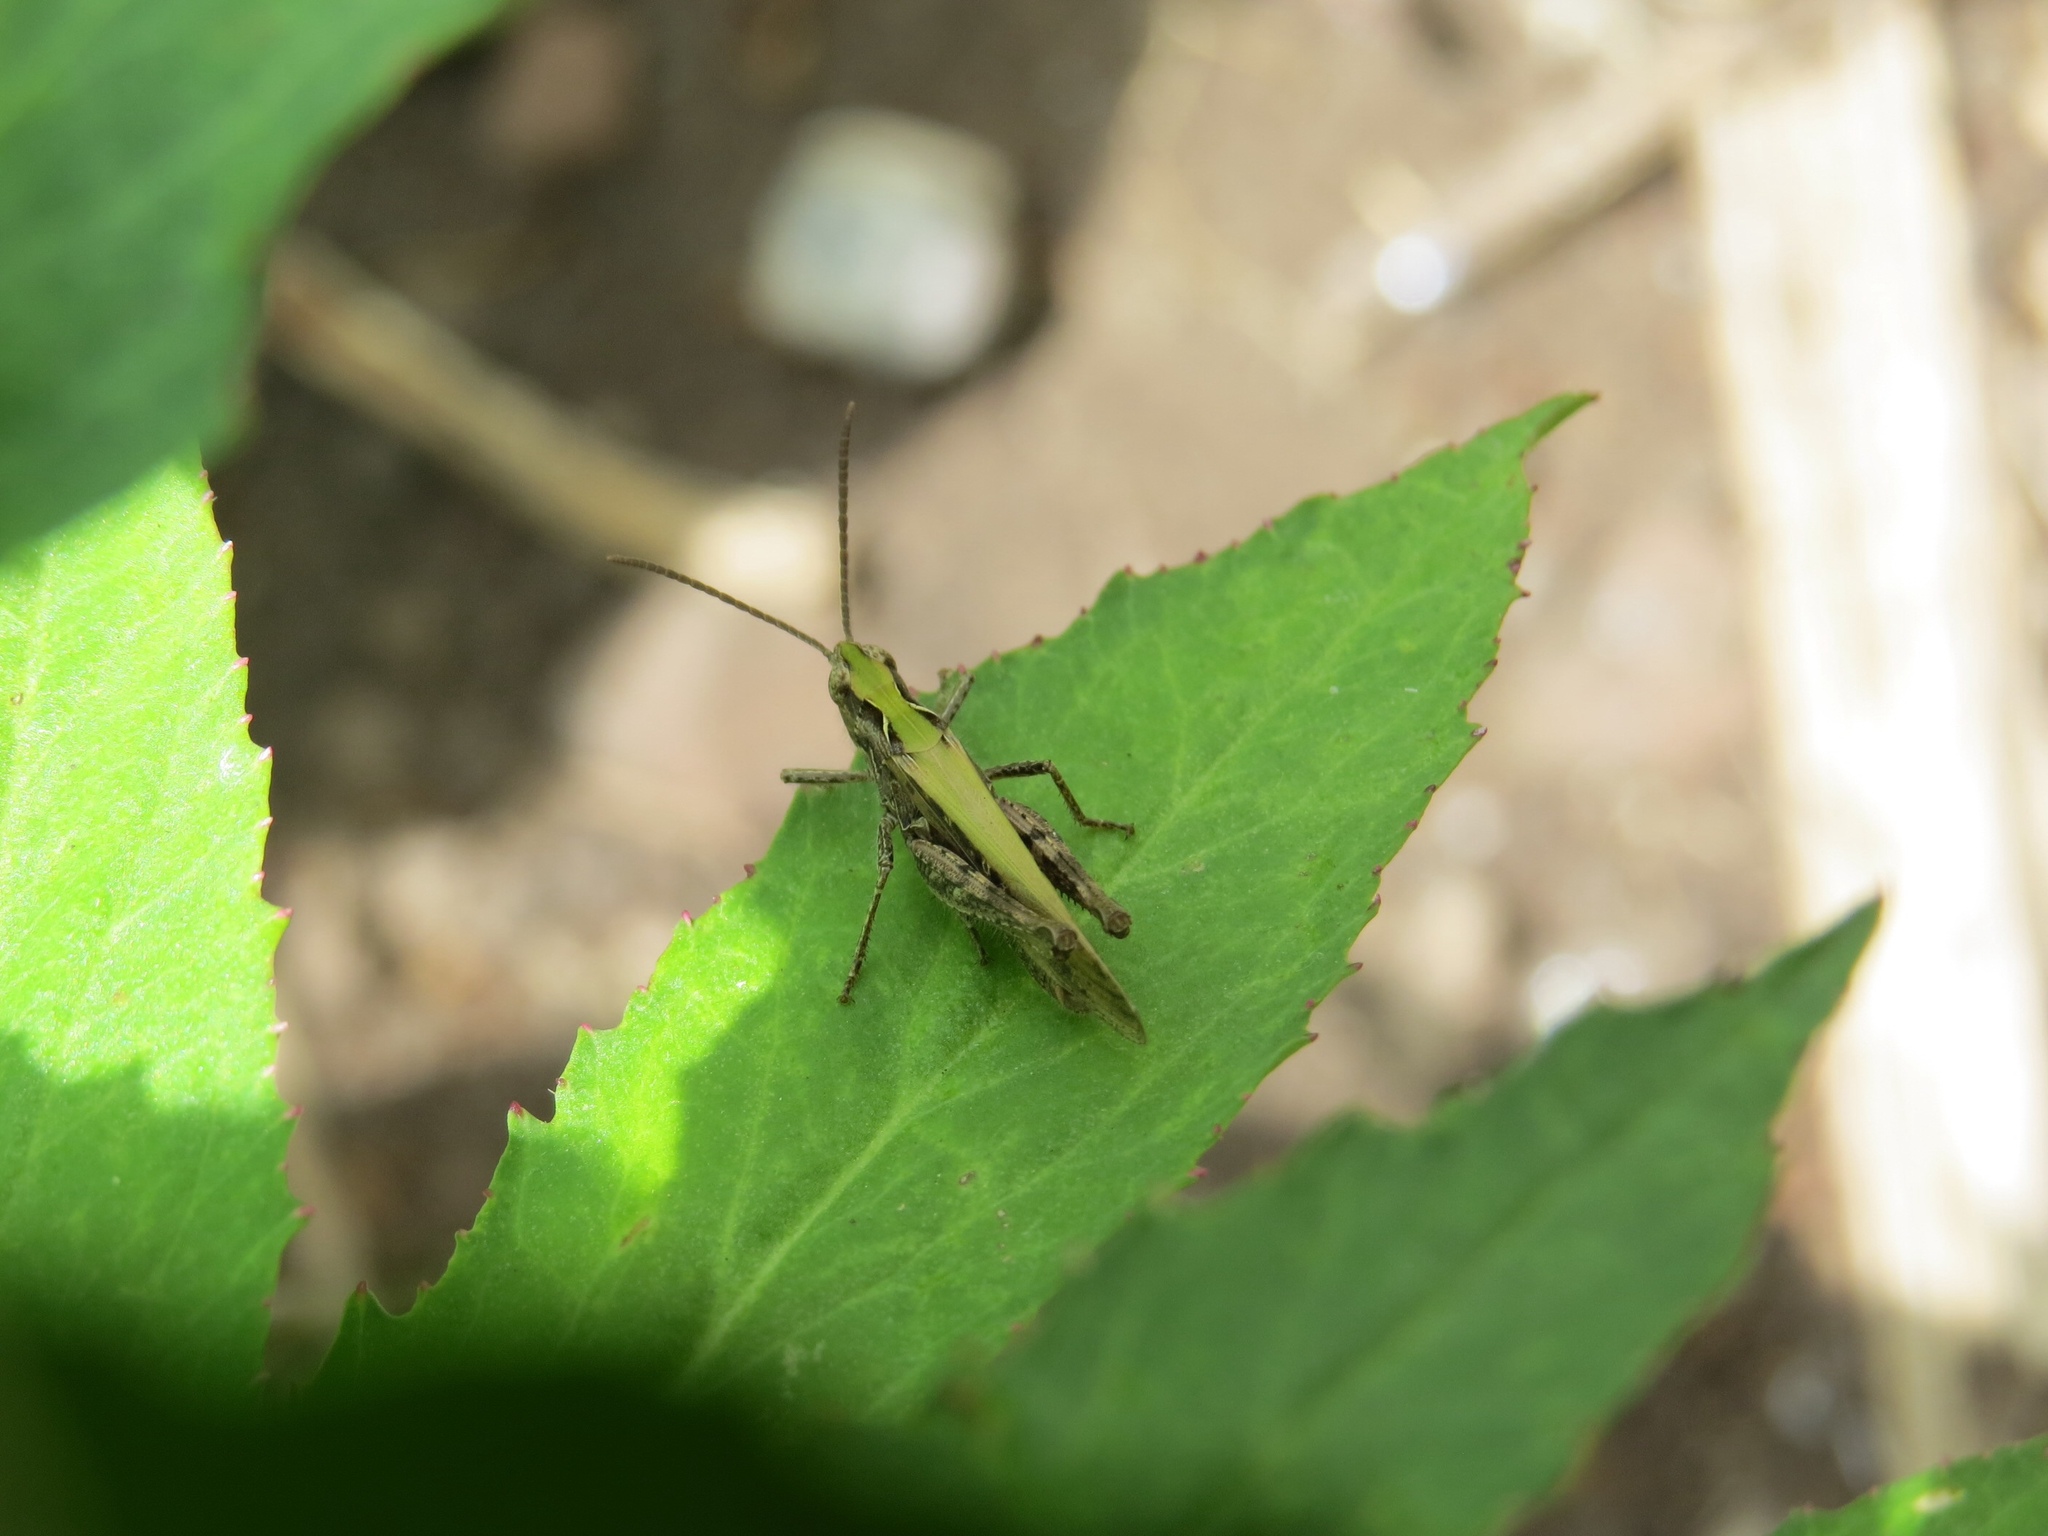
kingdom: Animalia
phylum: Arthropoda
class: Insecta
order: Orthoptera
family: Acrididae
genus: Chorthippus
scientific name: Chorthippus brunneus
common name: Field grasshopper
